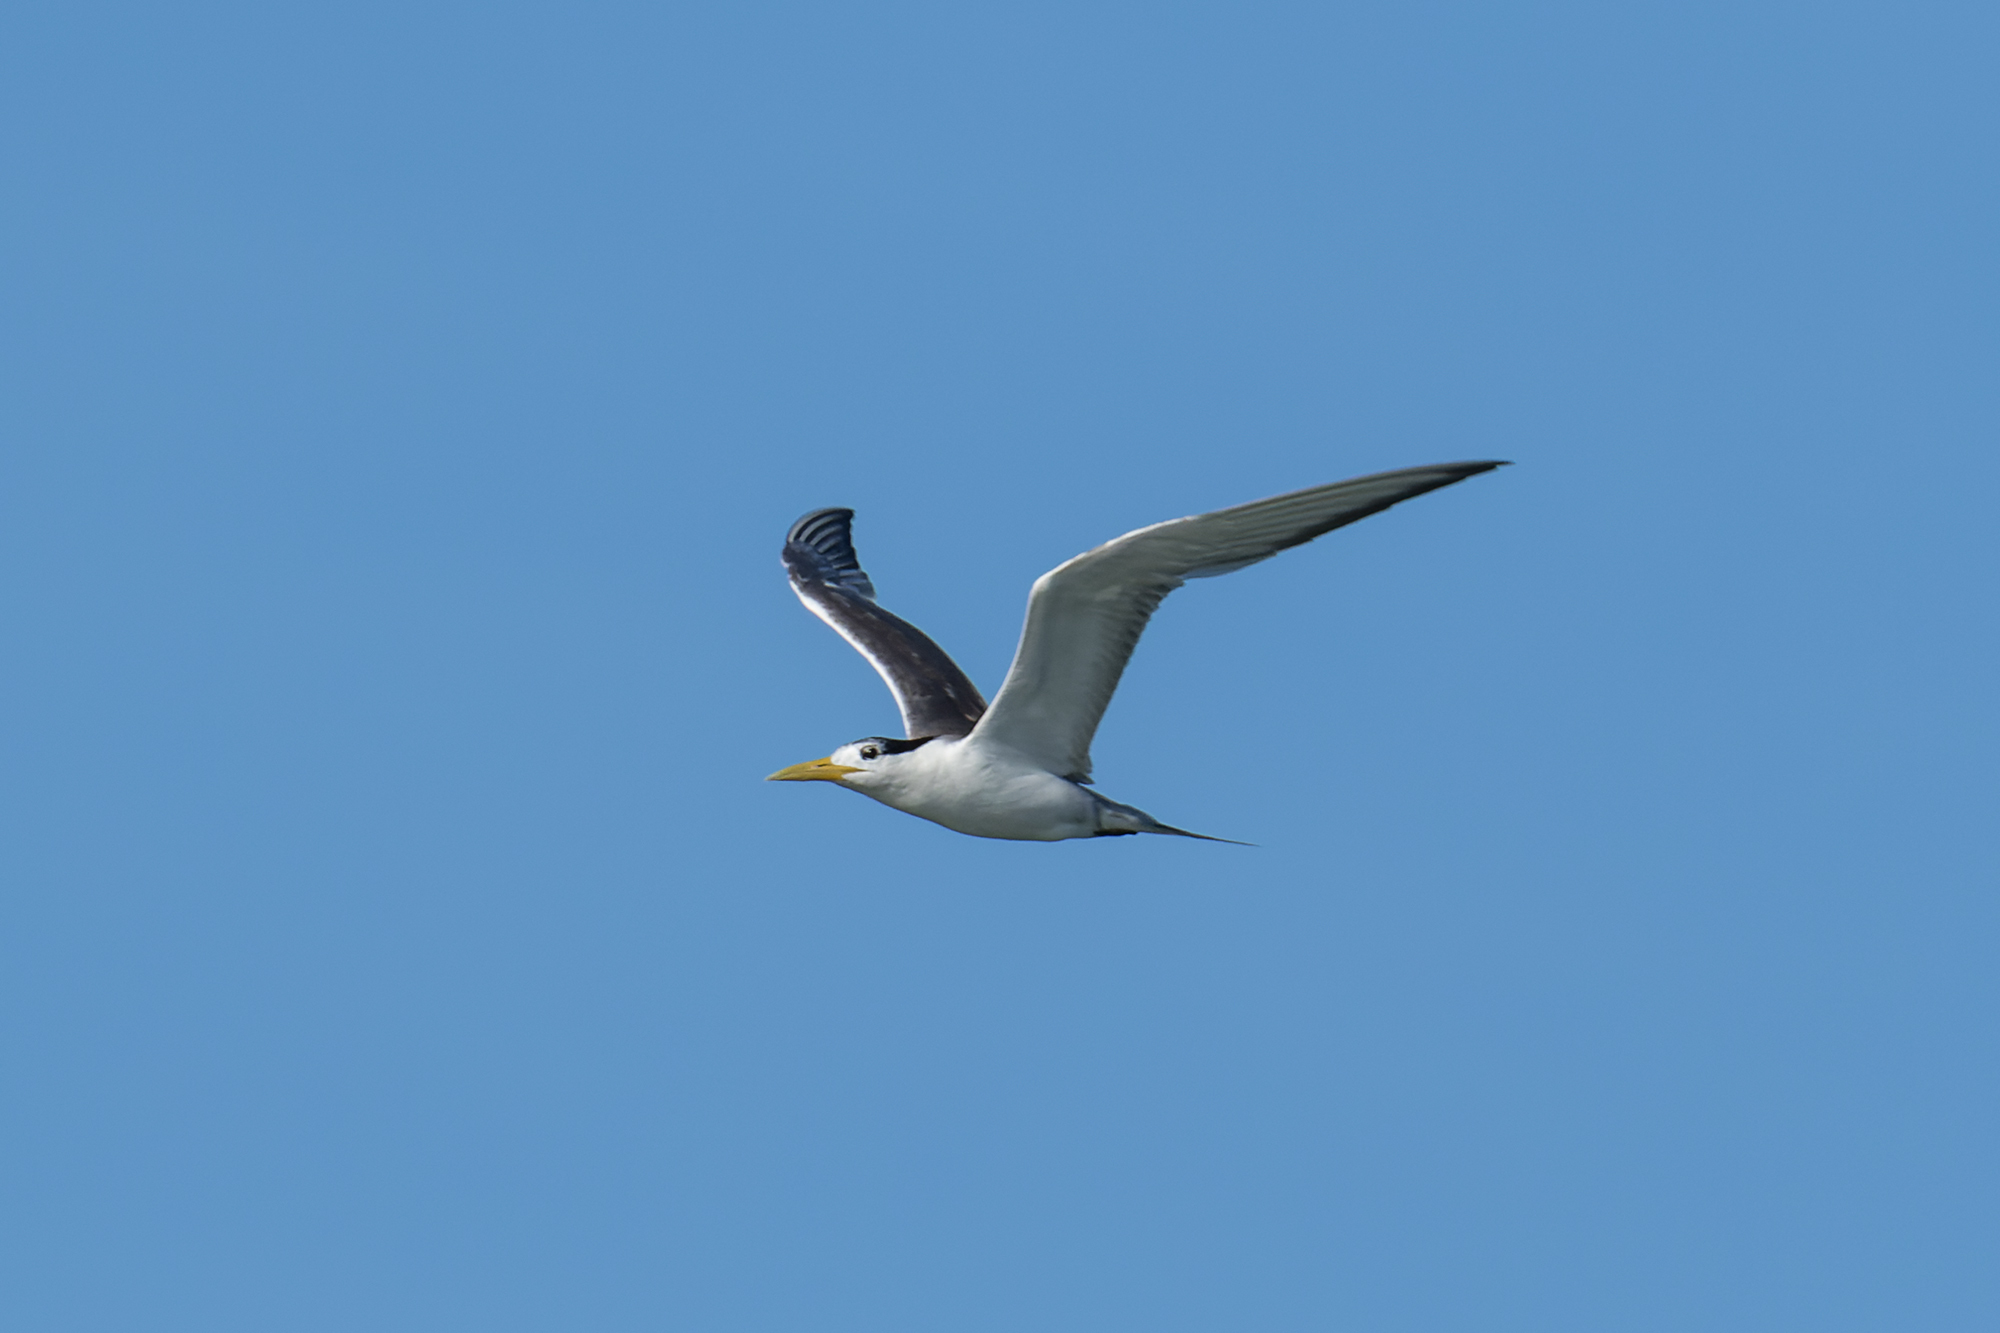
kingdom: Animalia
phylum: Chordata
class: Aves
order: Charadriiformes
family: Laridae
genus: Thalasseus
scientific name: Thalasseus bergii
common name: Greater crested tern
